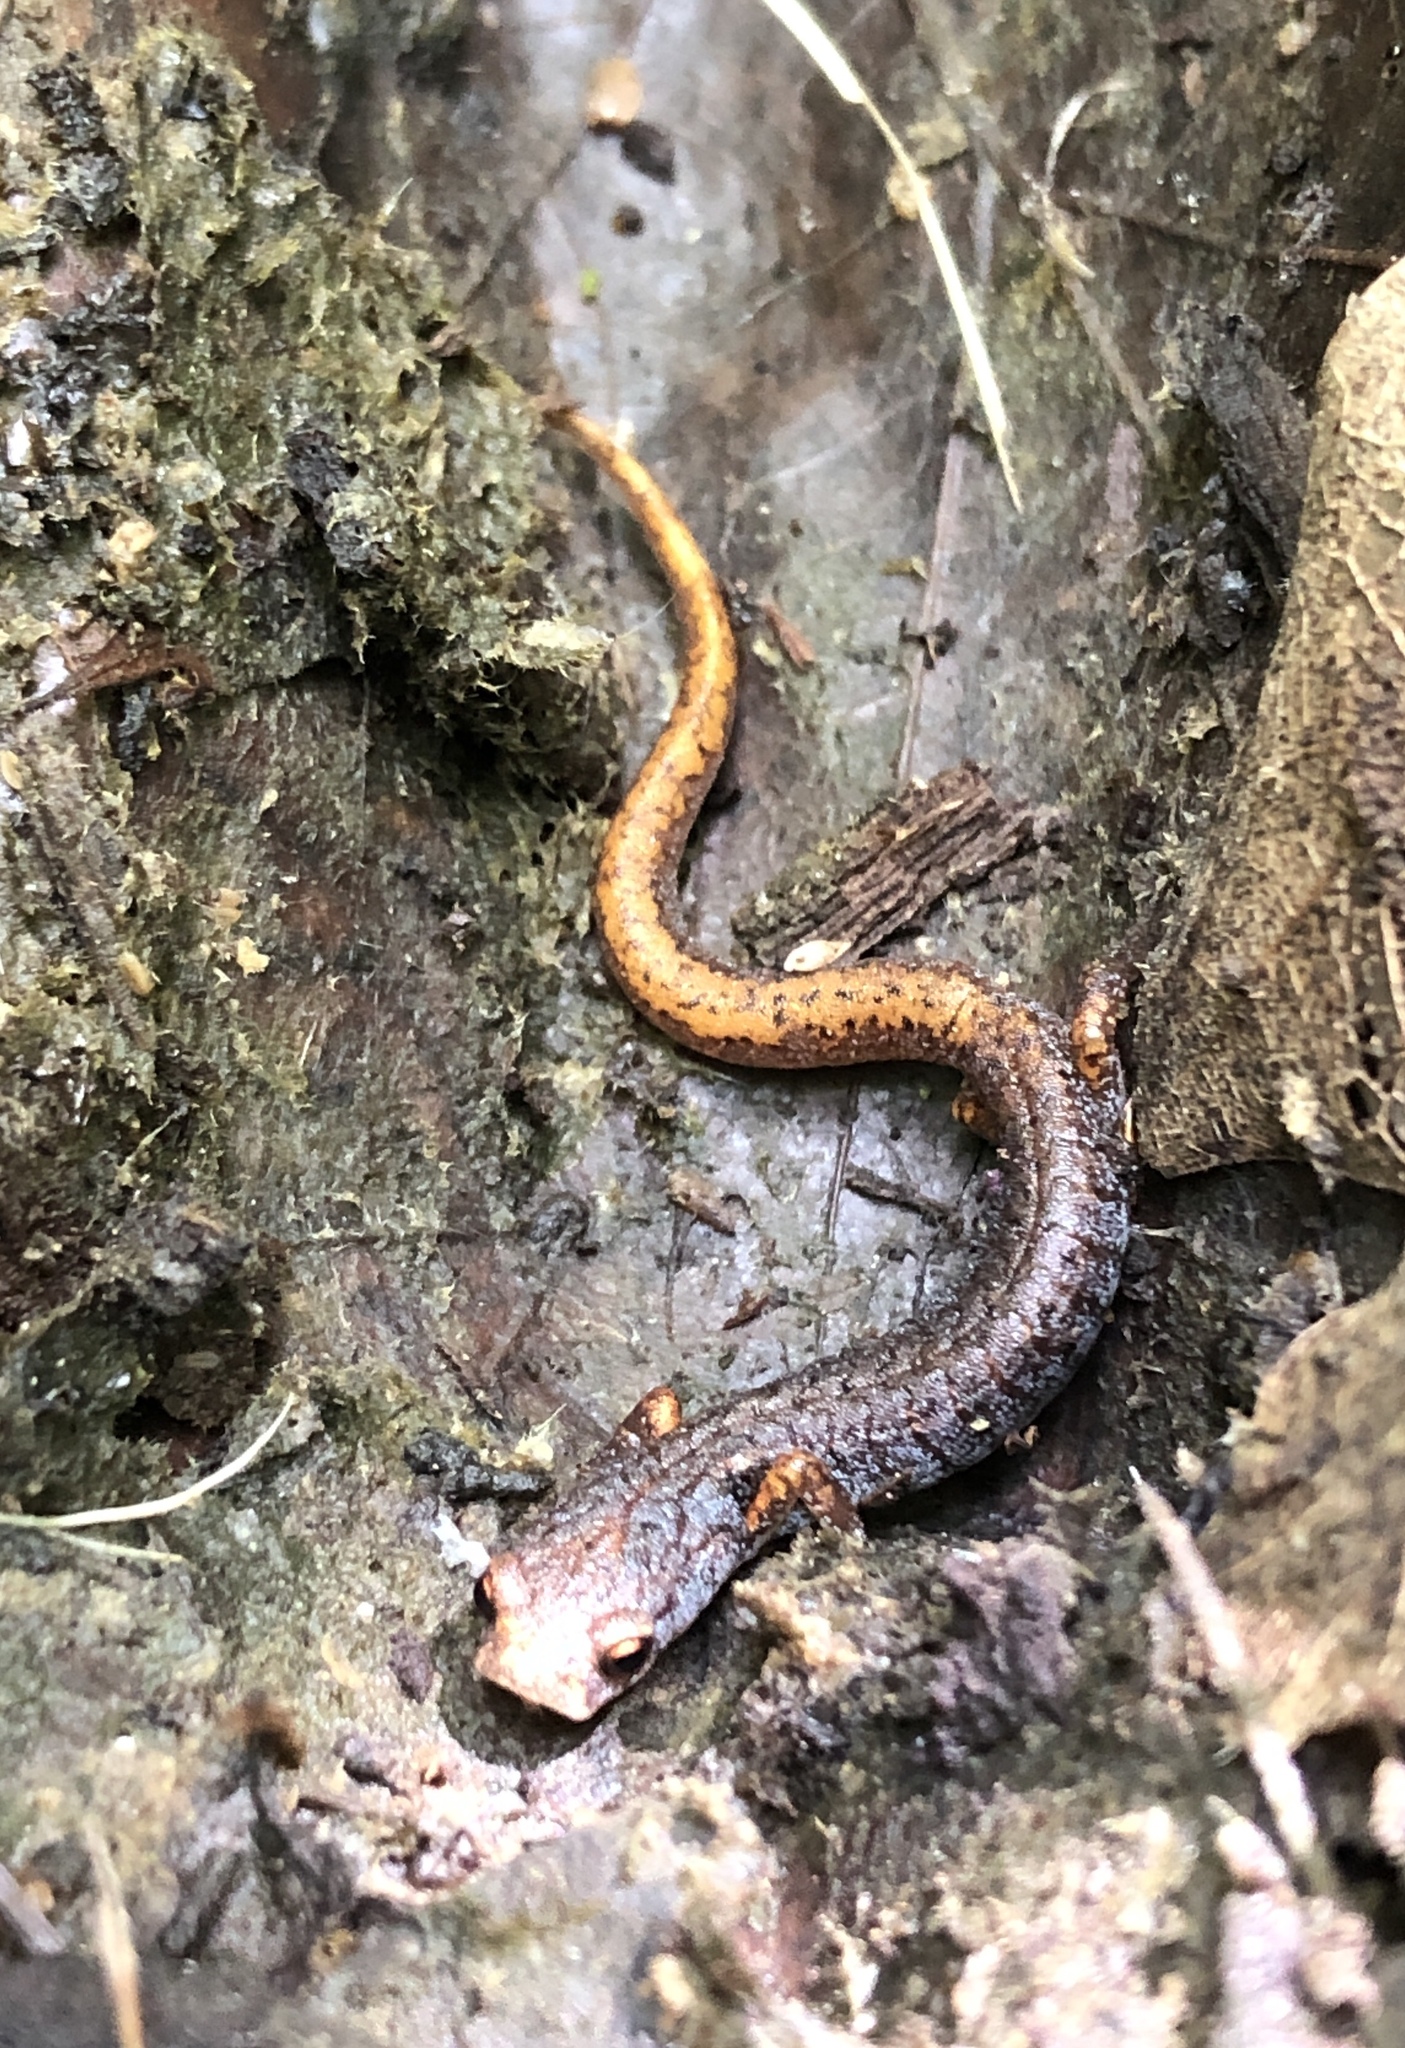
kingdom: Animalia
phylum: Chordata
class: Amphibia
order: Caudata
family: Plethodontidae
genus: Hemidactylium
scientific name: Hemidactylium scutatum
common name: Four-toed salamander
